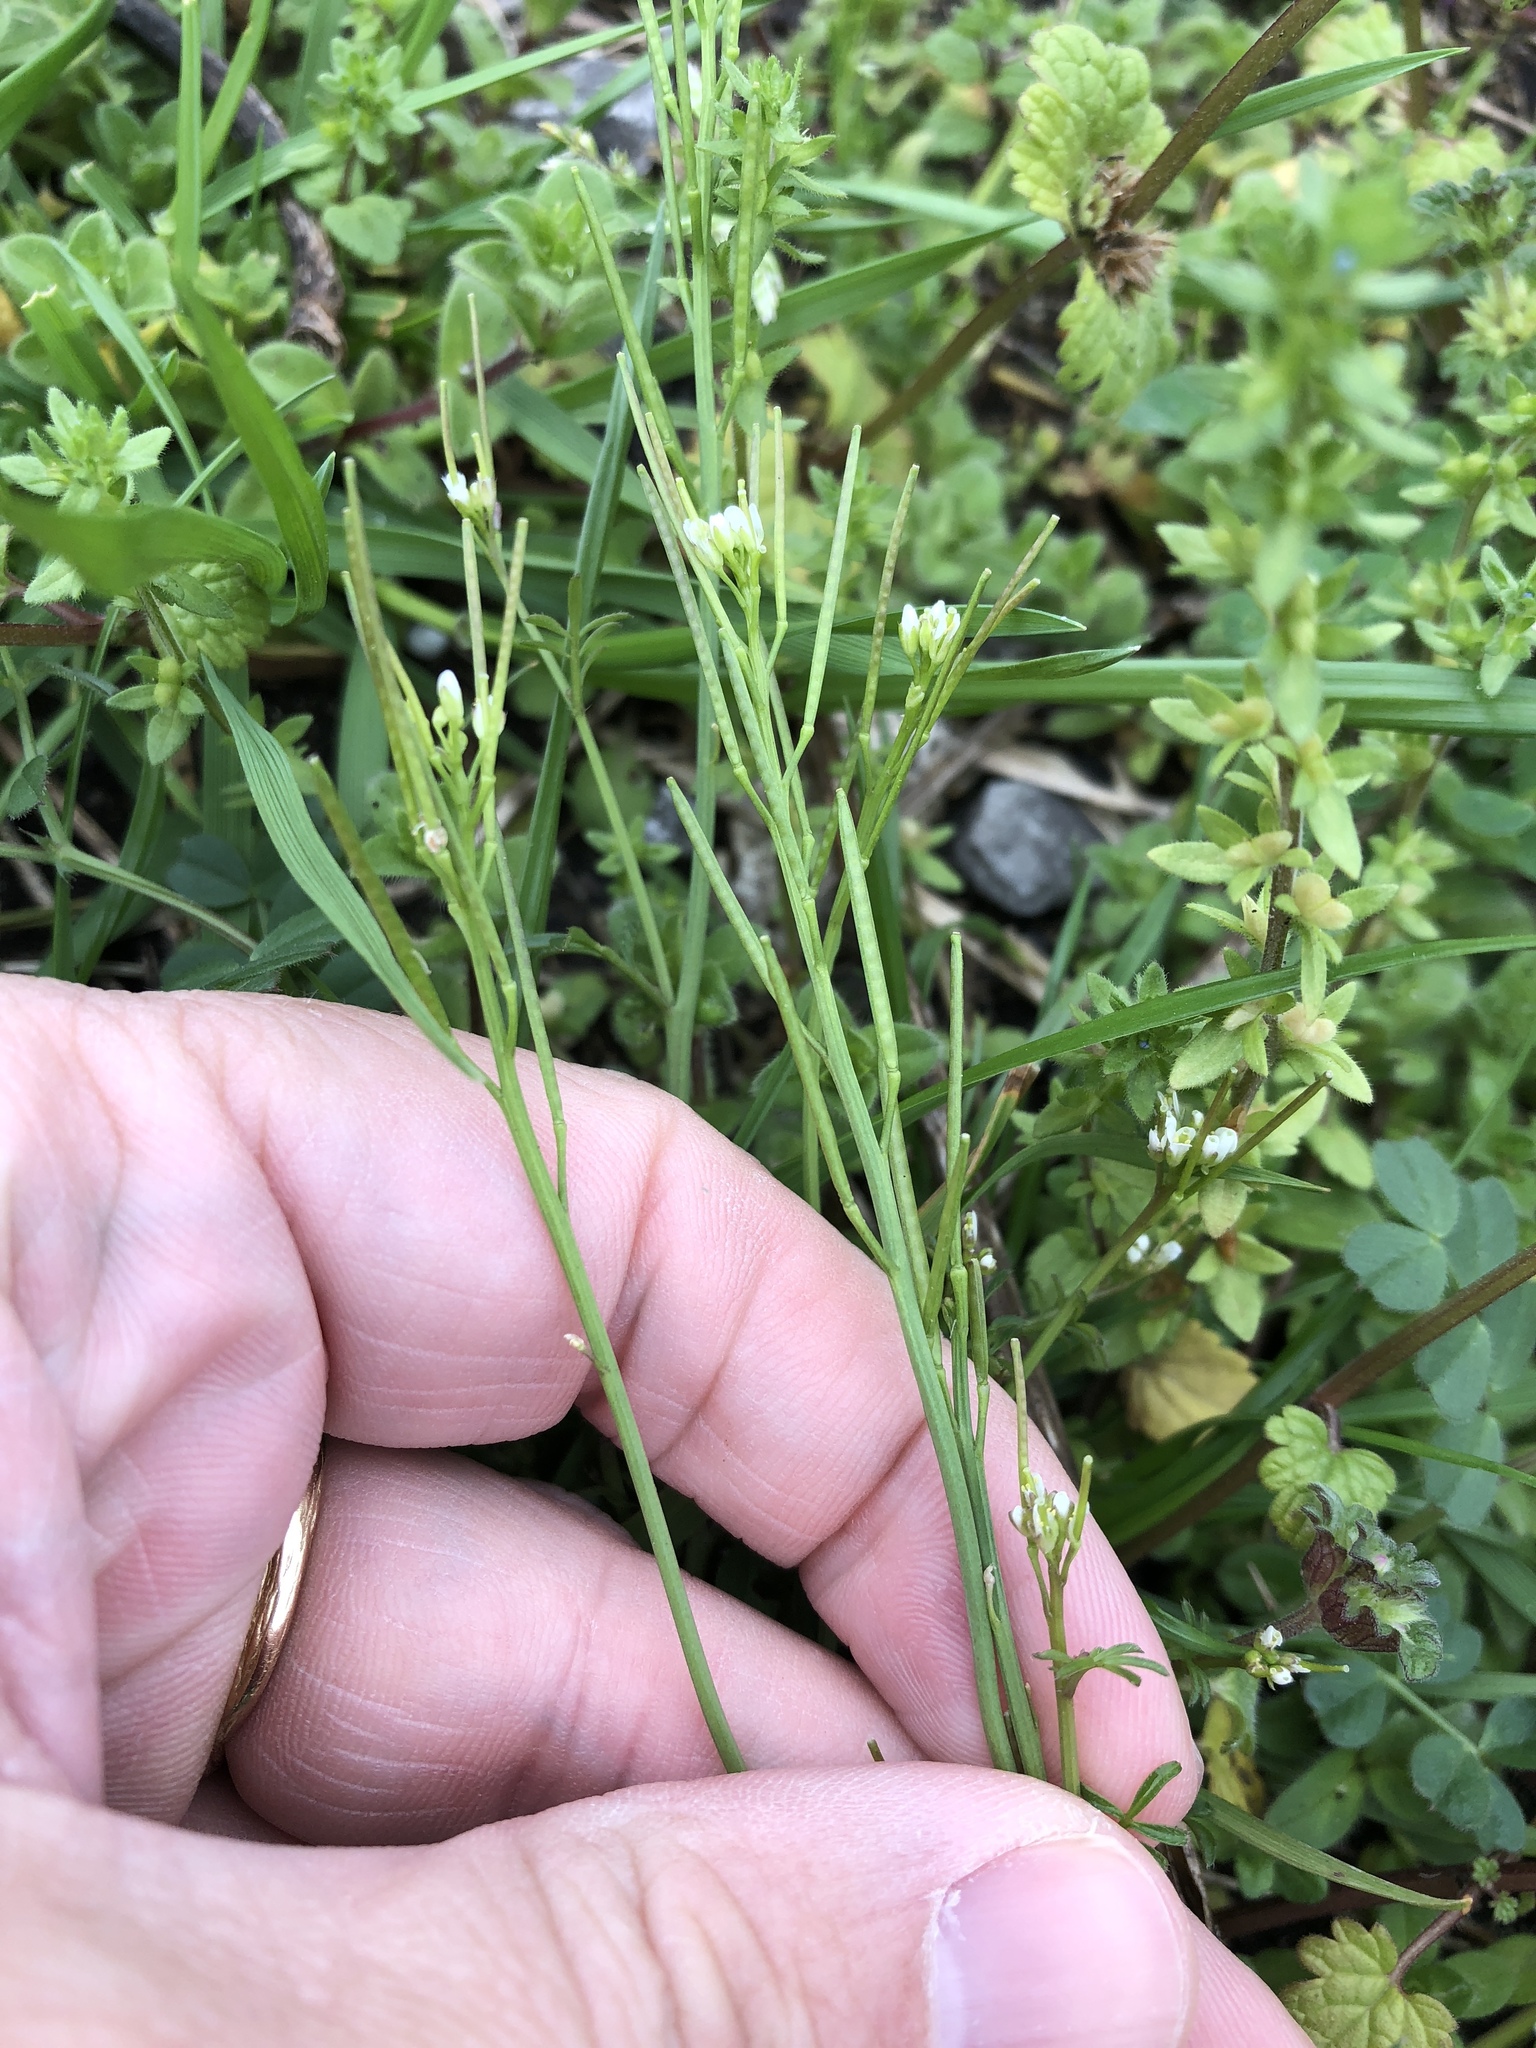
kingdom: Plantae
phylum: Tracheophyta
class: Magnoliopsida
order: Brassicales
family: Brassicaceae
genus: Cardamine
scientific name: Cardamine hirsuta
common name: Hairy bittercress
